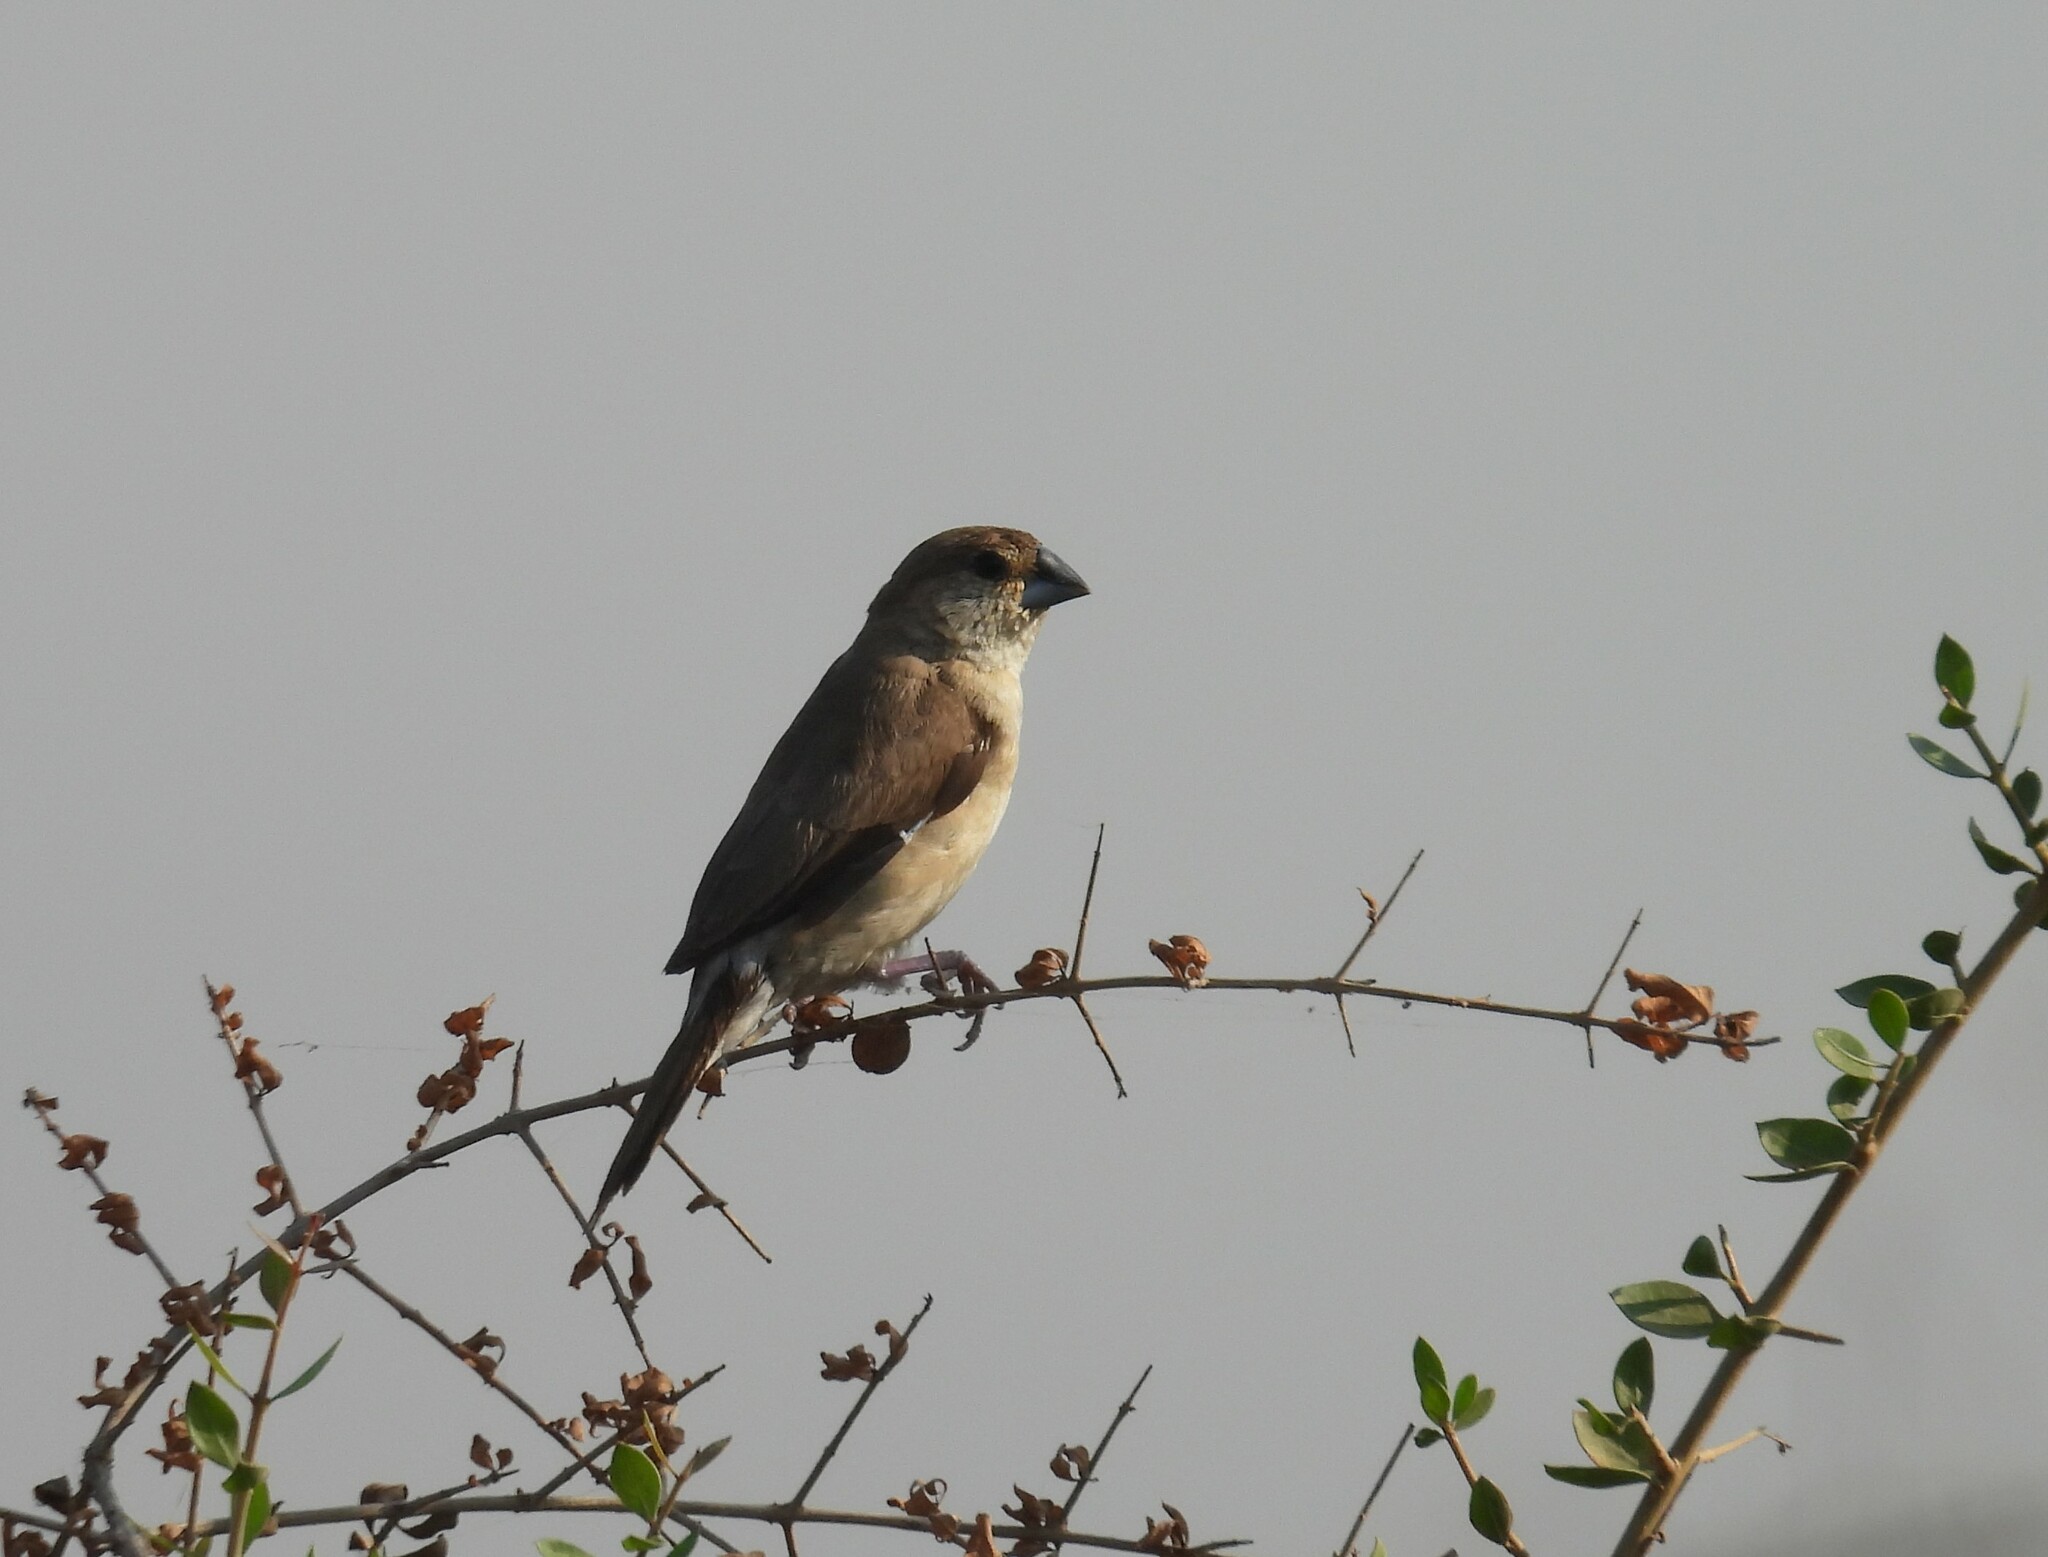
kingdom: Animalia
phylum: Chordata
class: Aves
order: Passeriformes
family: Estrildidae
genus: Euodice
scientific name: Euodice malabarica
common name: Indian silverbill
